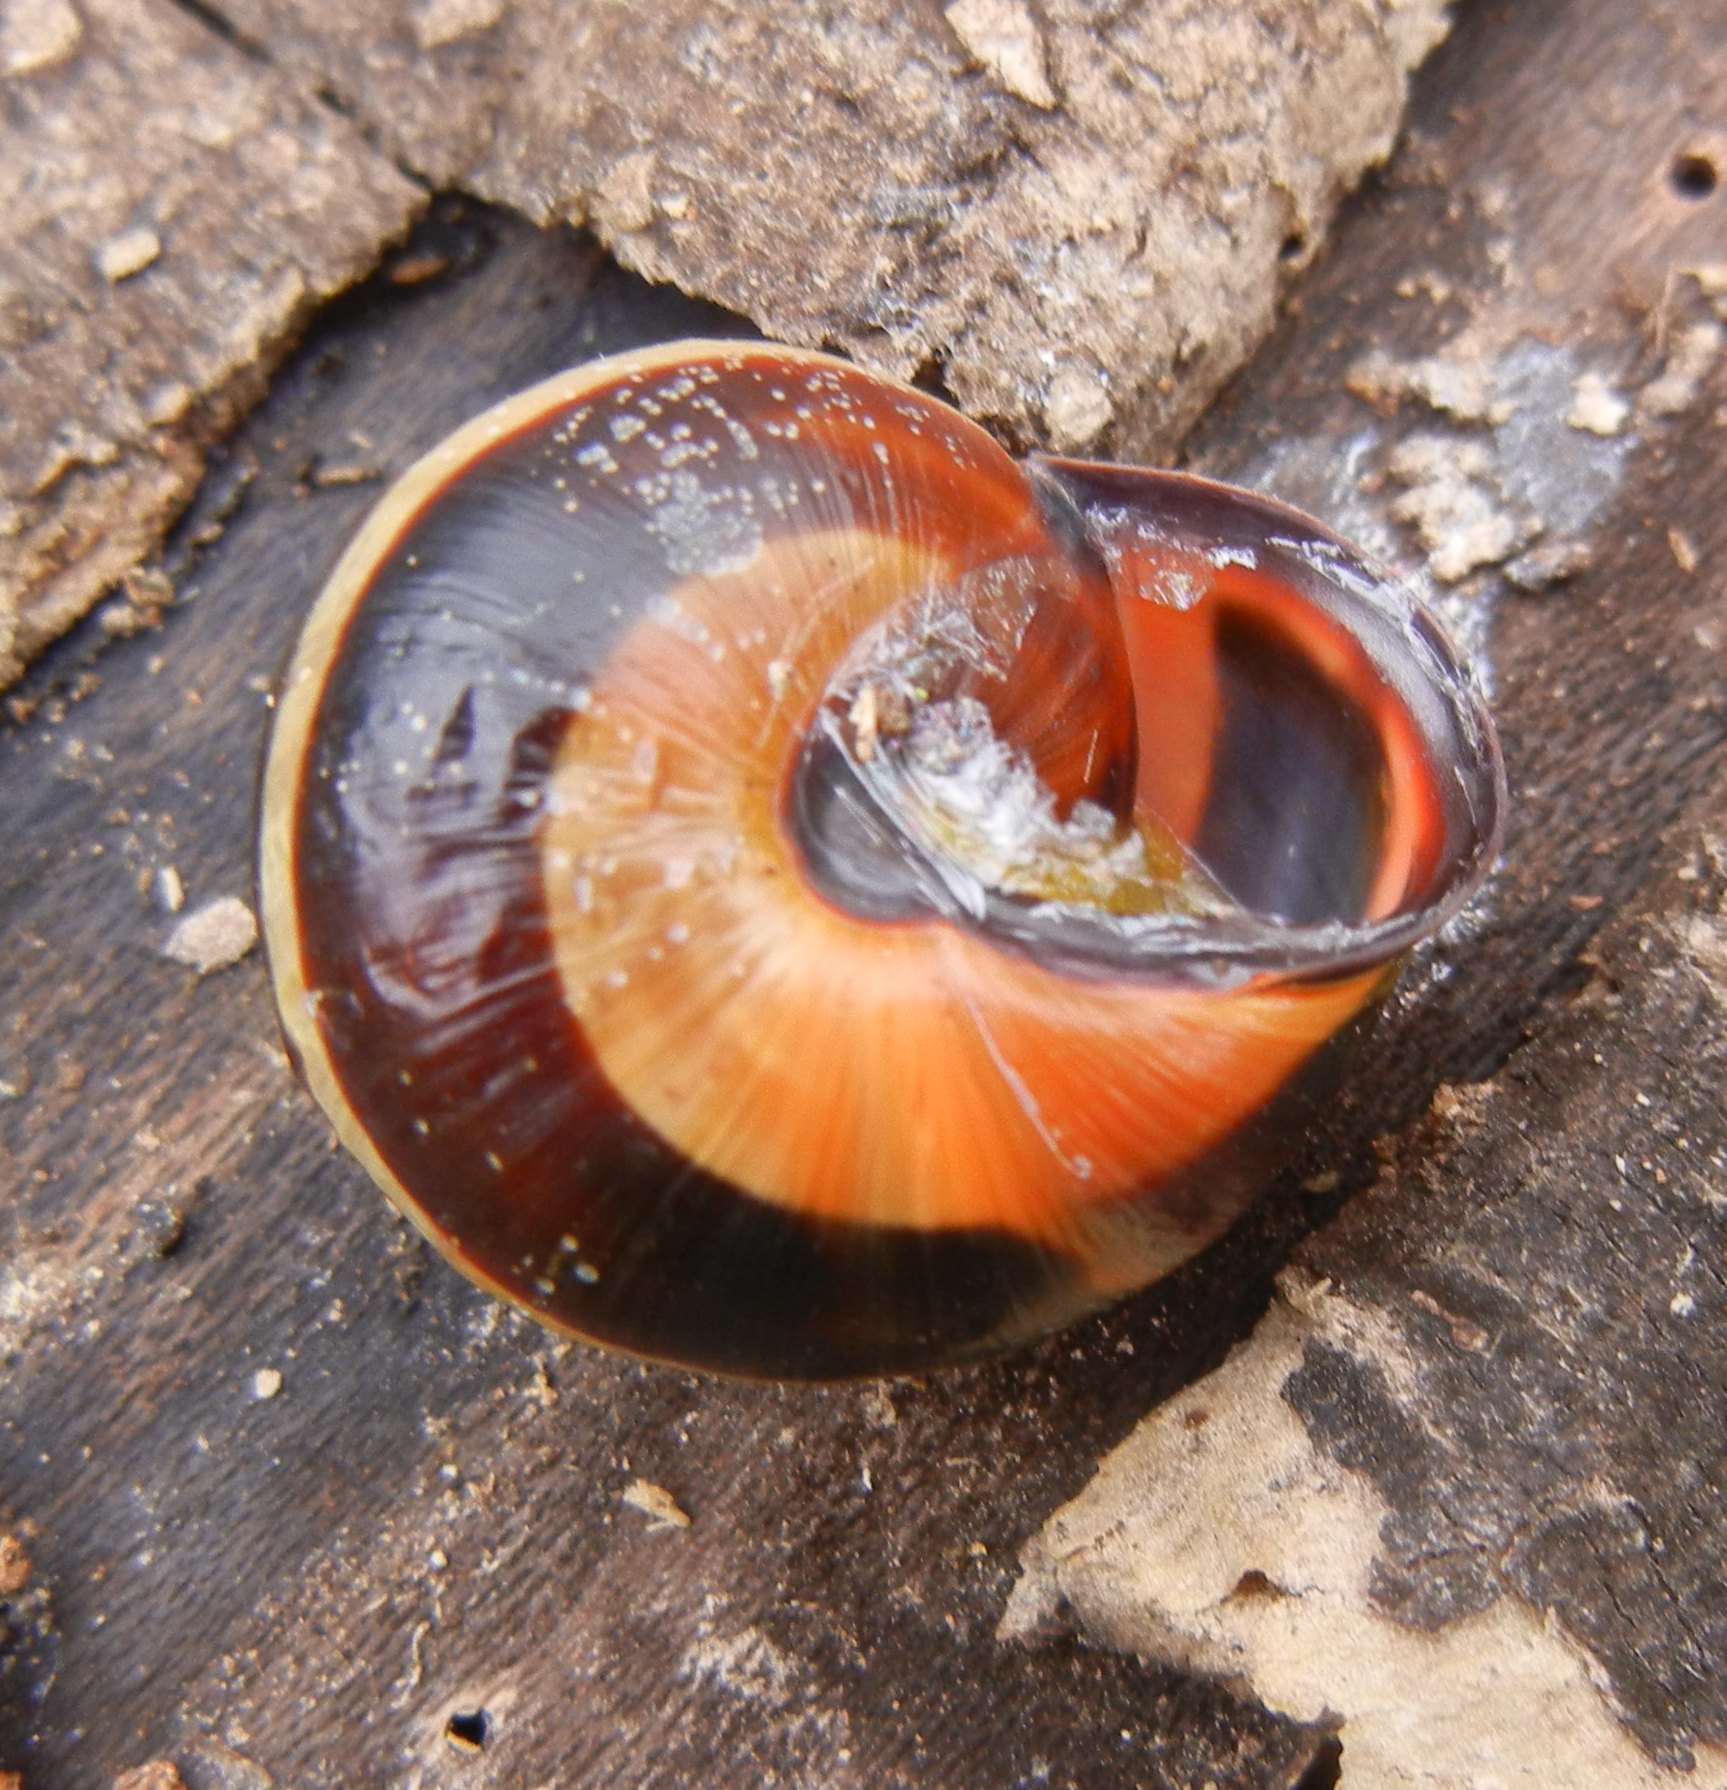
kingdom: Animalia
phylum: Mollusca
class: Gastropoda
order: Stylommatophora
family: Helicidae
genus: Cepaea
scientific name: Cepaea nemoralis
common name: Grovesnail
